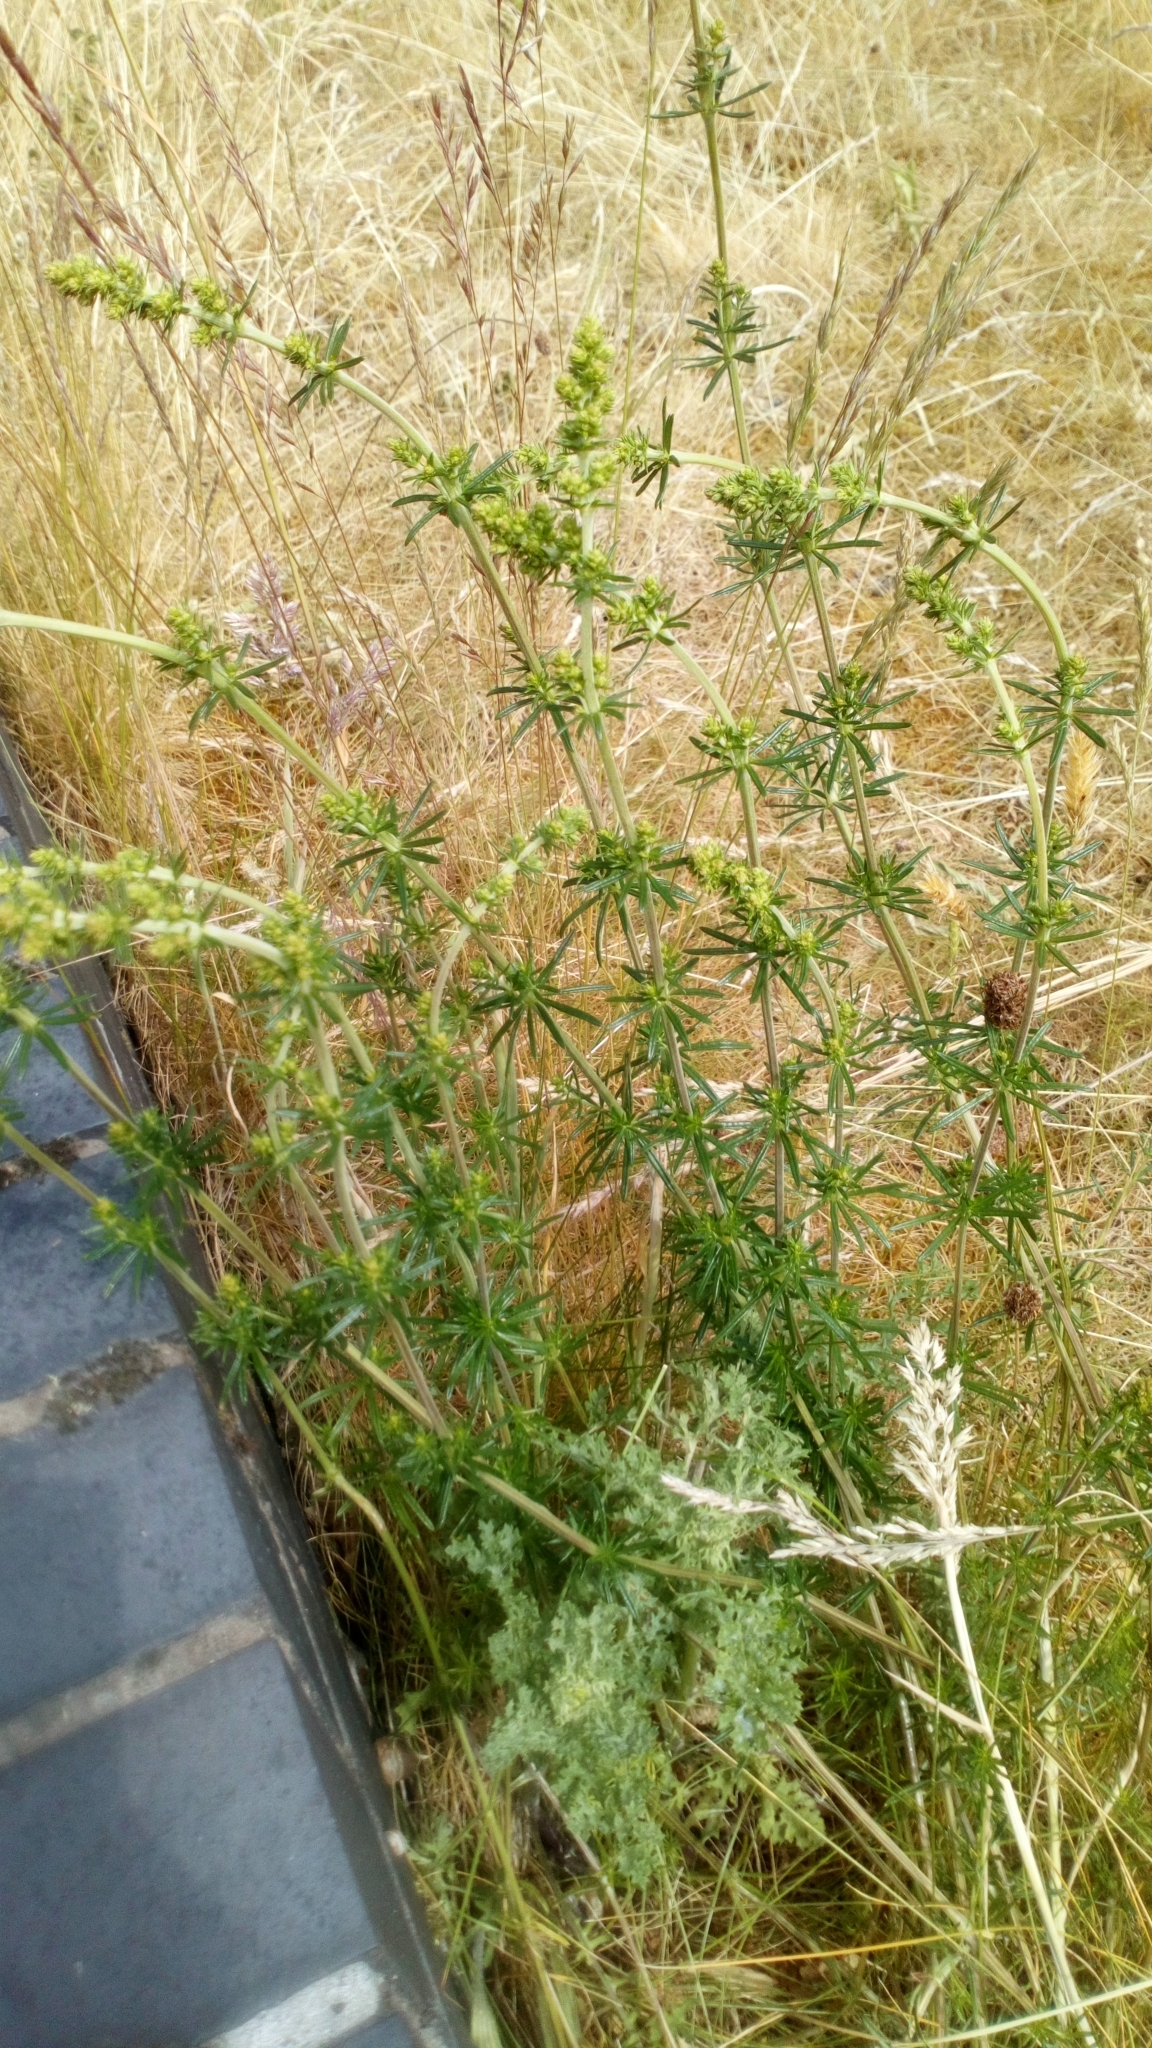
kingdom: Plantae
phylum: Tracheophyta
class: Magnoliopsida
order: Gentianales
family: Rubiaceae
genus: Galium
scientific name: Galium verum
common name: Lady's bedstraw
